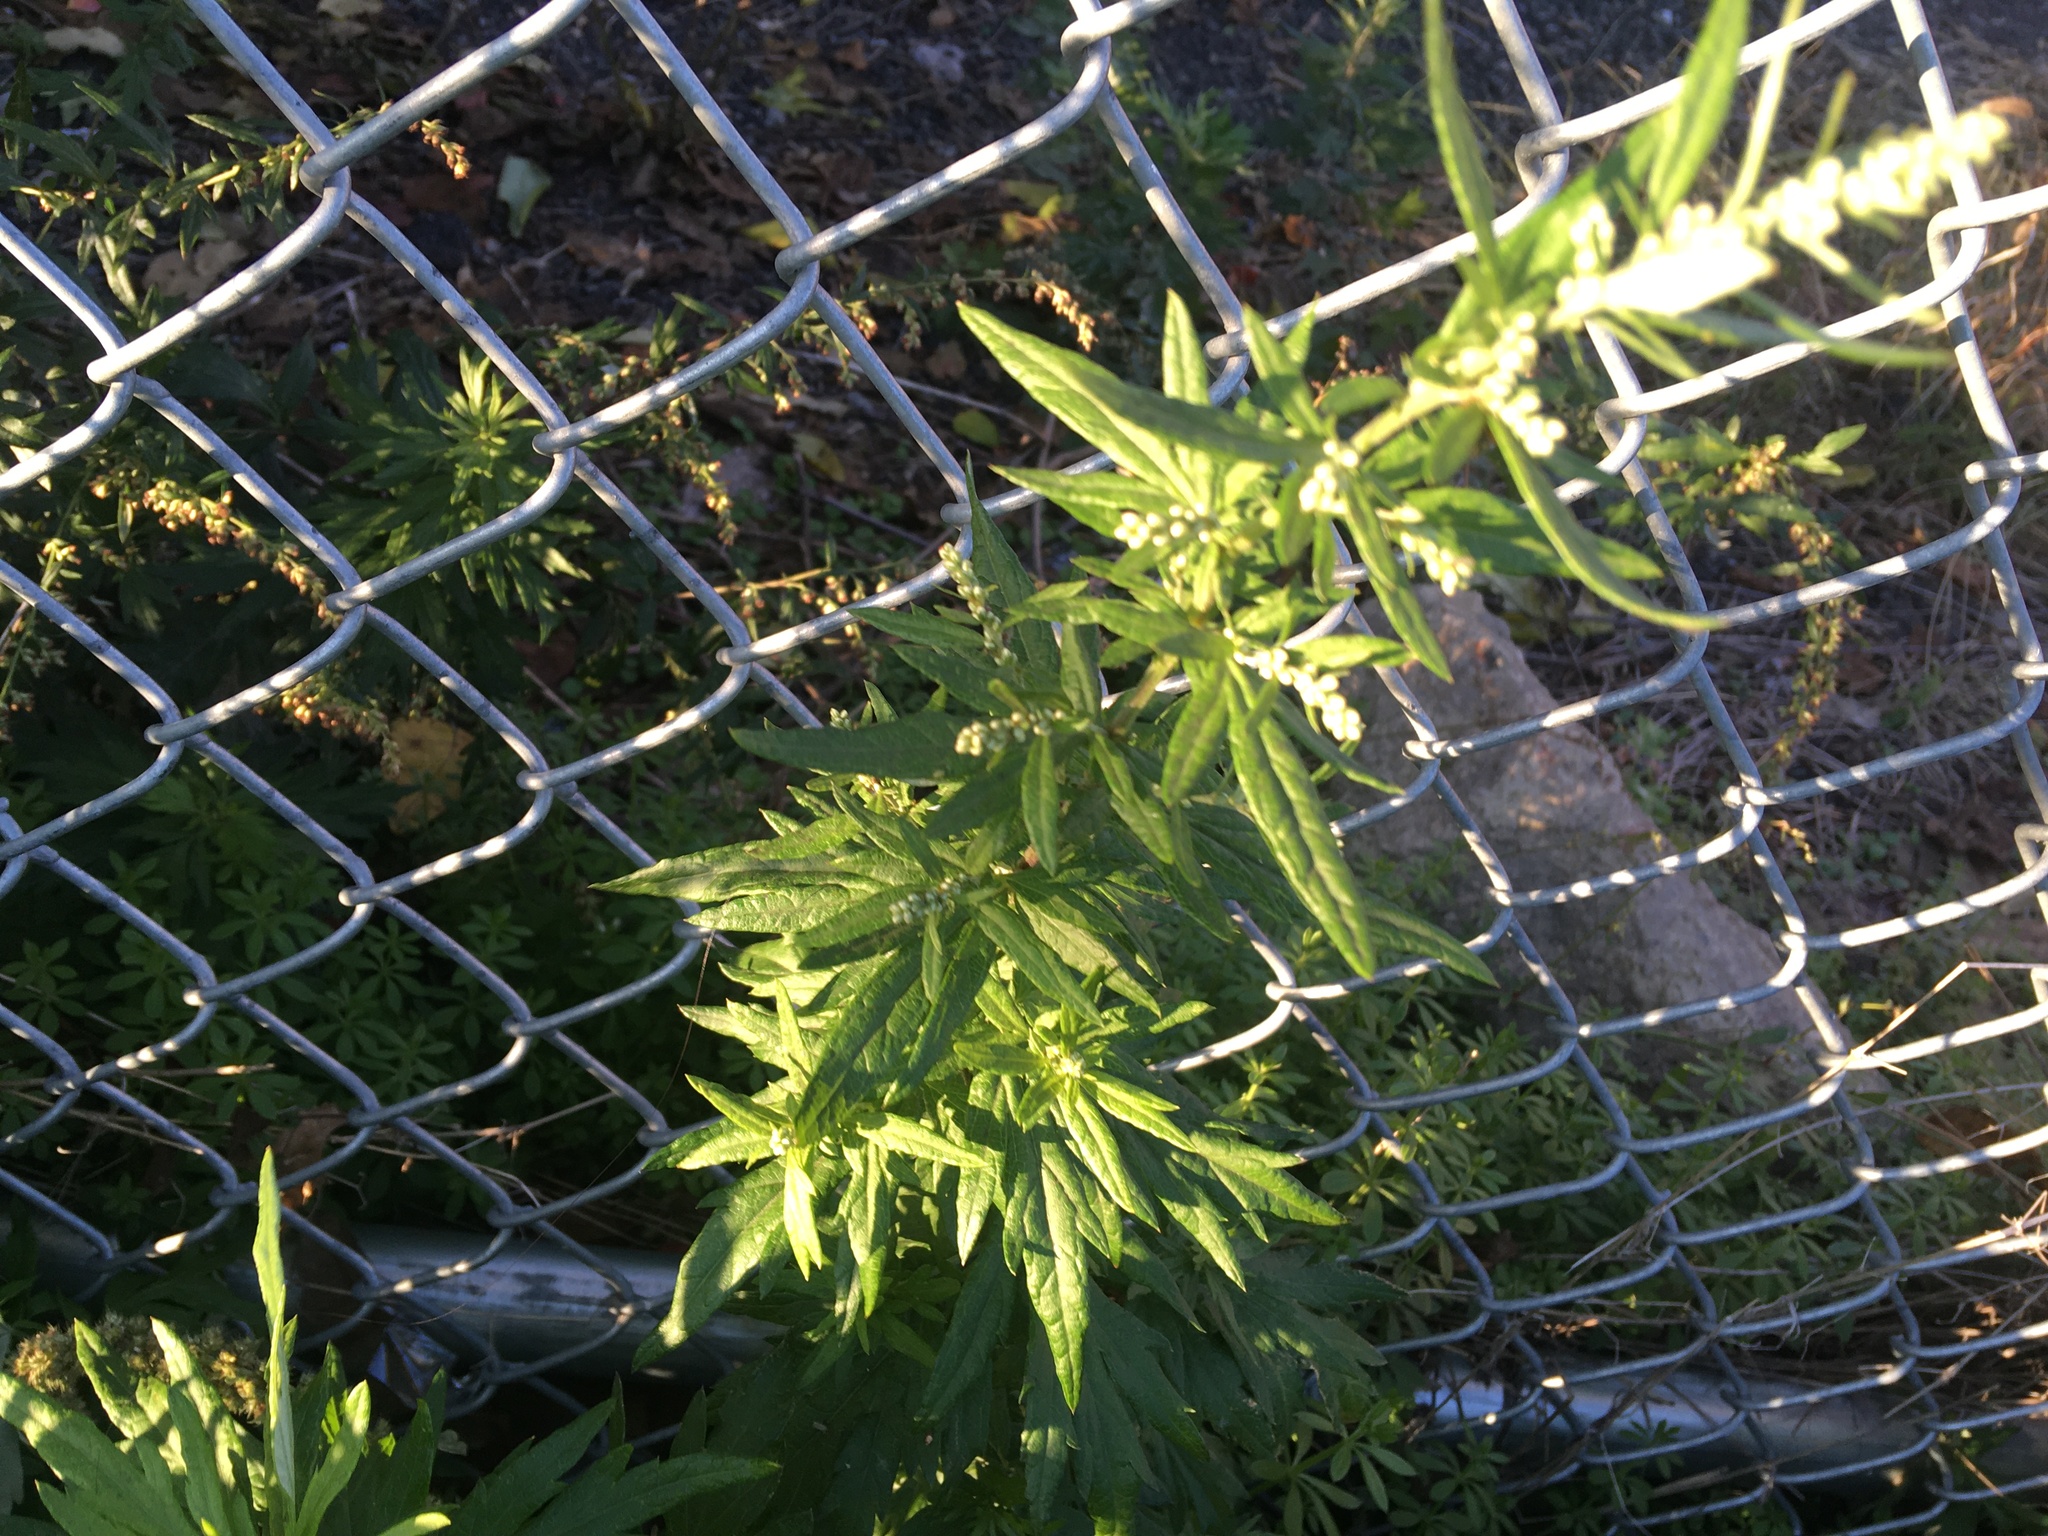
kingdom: Plantae
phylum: Tracheophyta
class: Magnoliopsida
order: Asterales
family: Asteraceae
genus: Artemisia
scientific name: Artemisia vulgaris
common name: Mugwort
